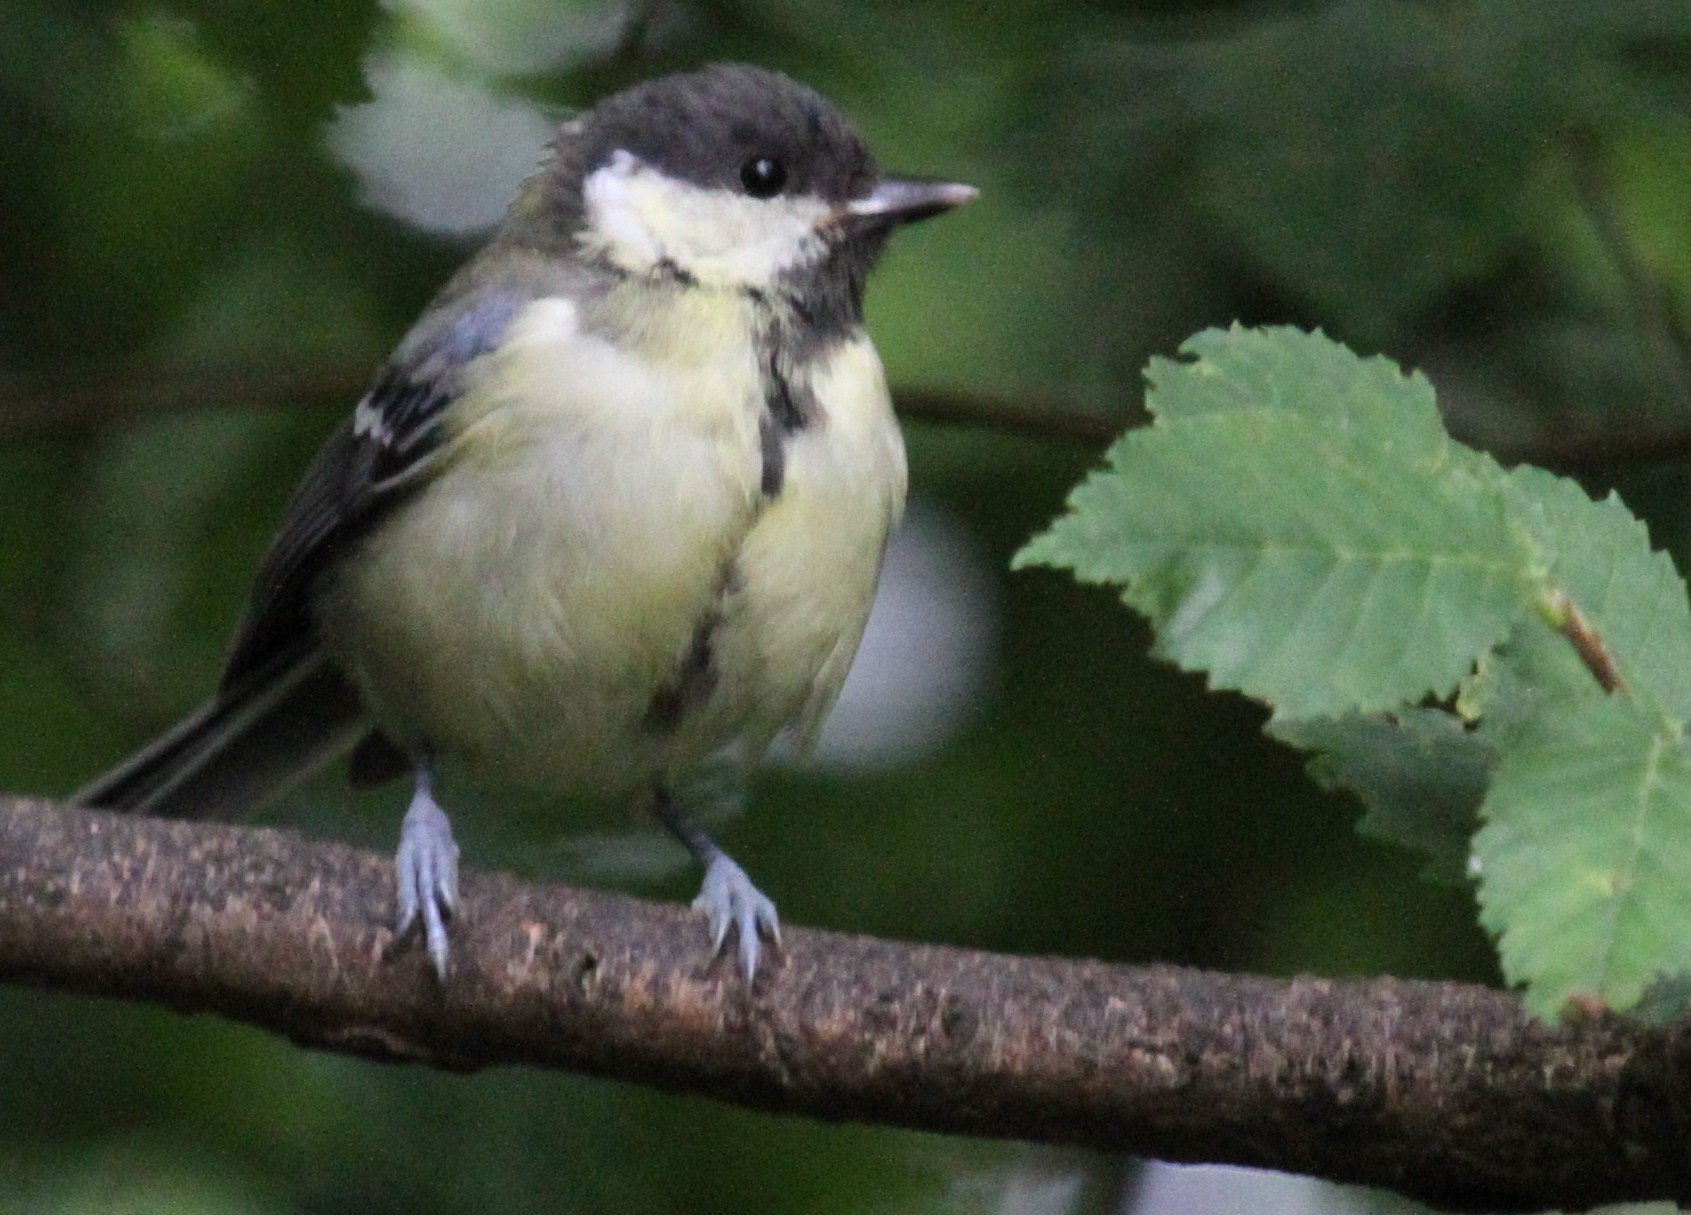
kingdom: Animalia
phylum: Chordata
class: Aves
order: Passeriformes
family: Paridae
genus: Parus
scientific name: Parus major
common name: Great tit
